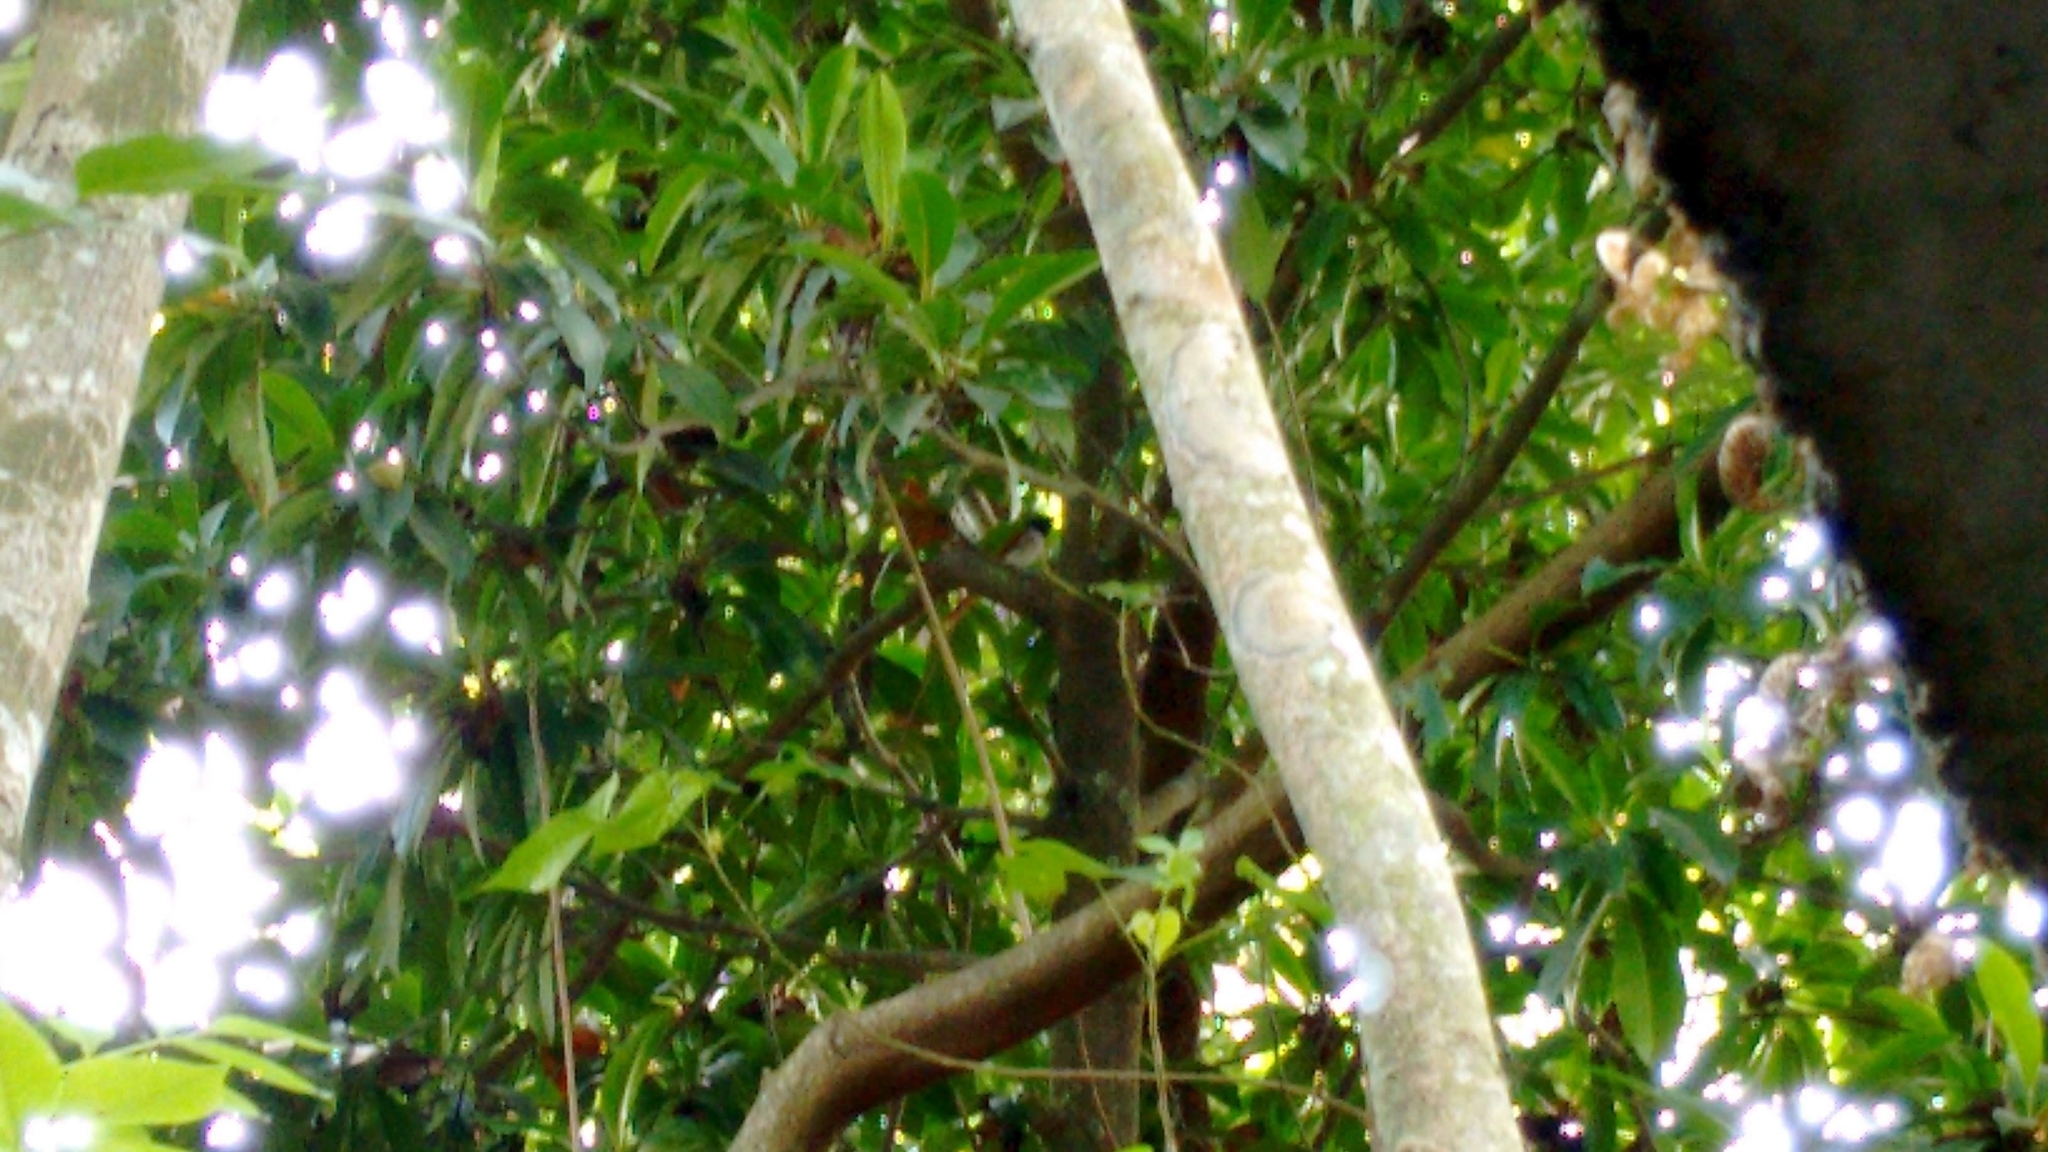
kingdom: Animalia
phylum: Chordata
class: Aves
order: Passeriformes
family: Monarchidae
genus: Terpsiphone
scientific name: Terpsiphone paradisi
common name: Indian paradise flycatcher
